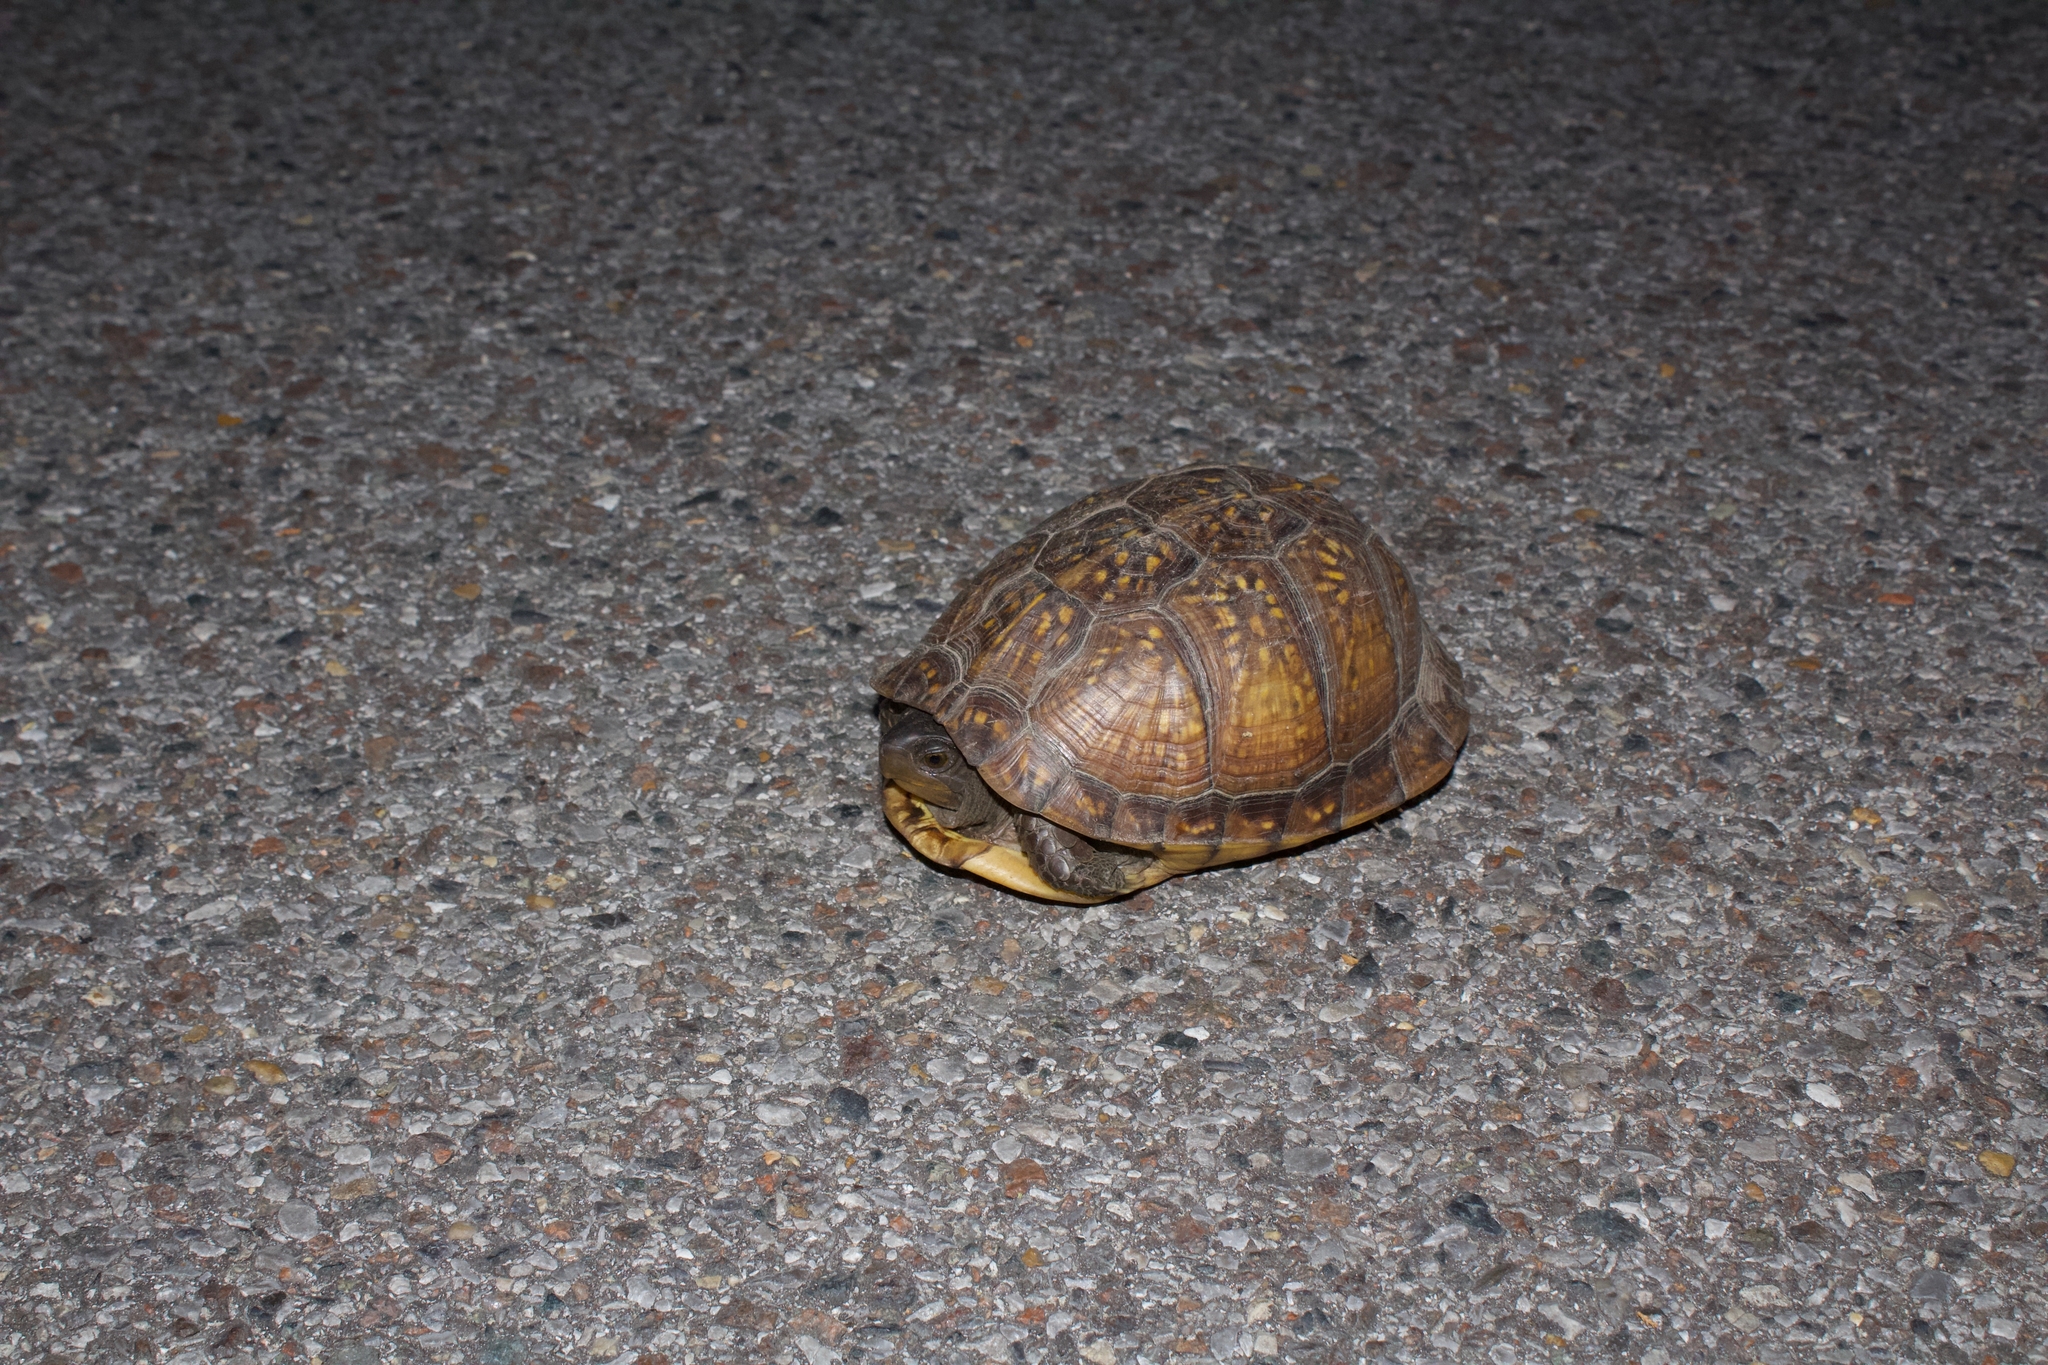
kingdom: Animalia
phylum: Chordata
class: Testudines
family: Emydidae
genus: Terrapene
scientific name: Terrapene carolina
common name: Common box turtle
